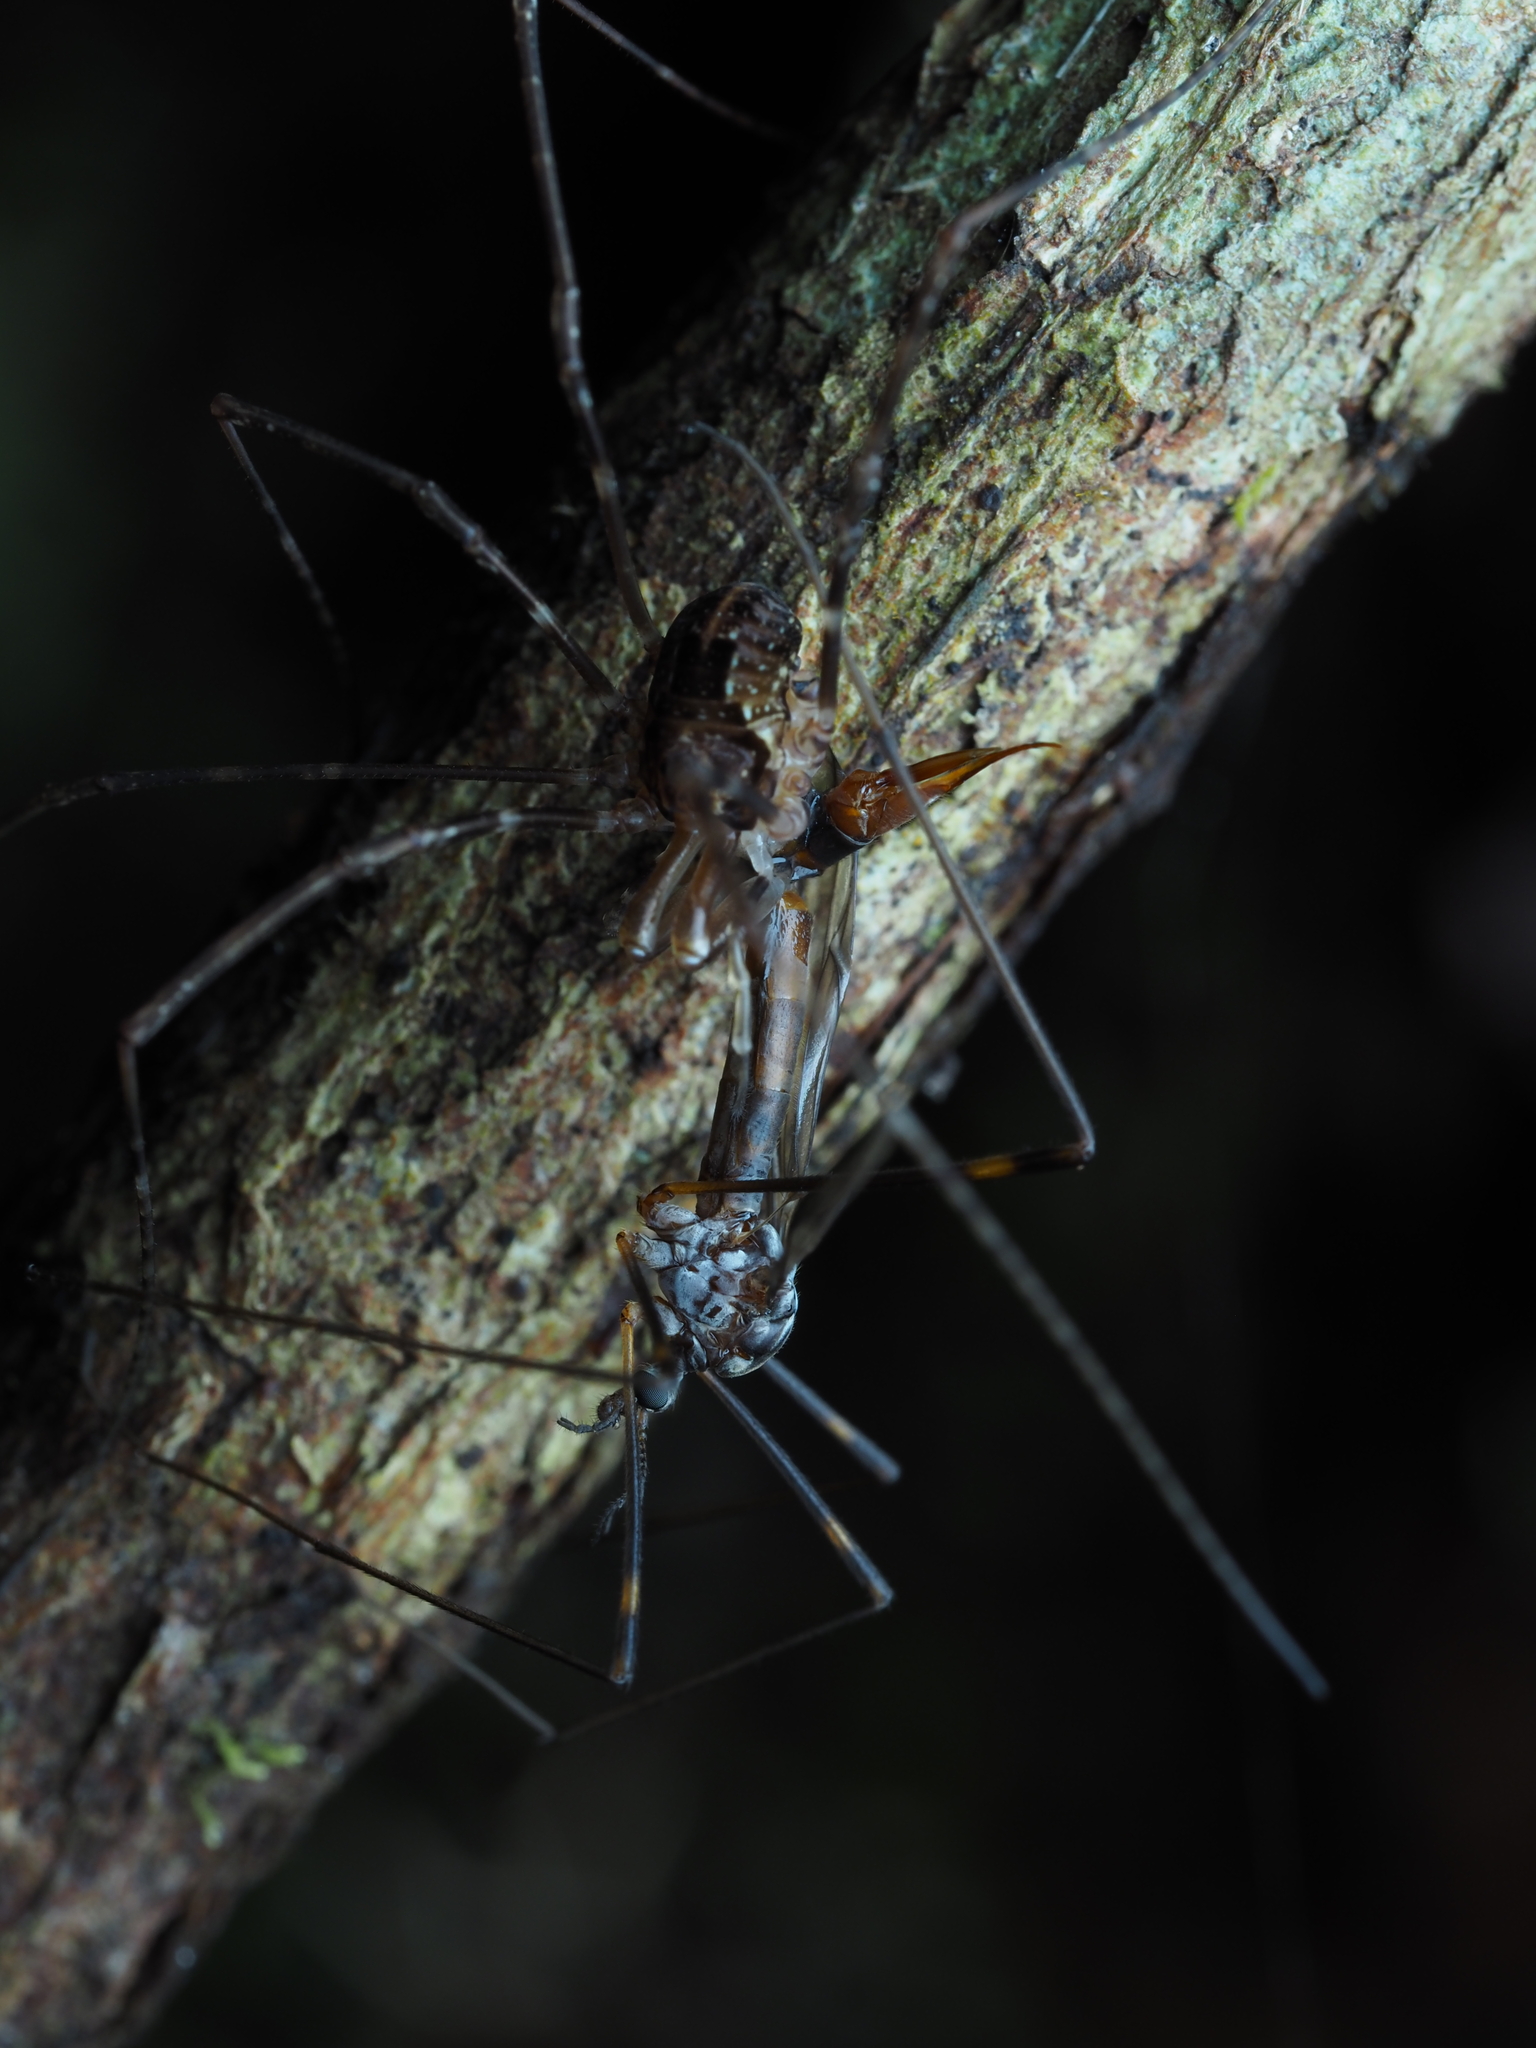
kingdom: Animalia
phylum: Arthropoda
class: Arachnida
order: Opiliones
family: Neopilionidae
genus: Forsteropsalis
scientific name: Forsteropsalis pureora
